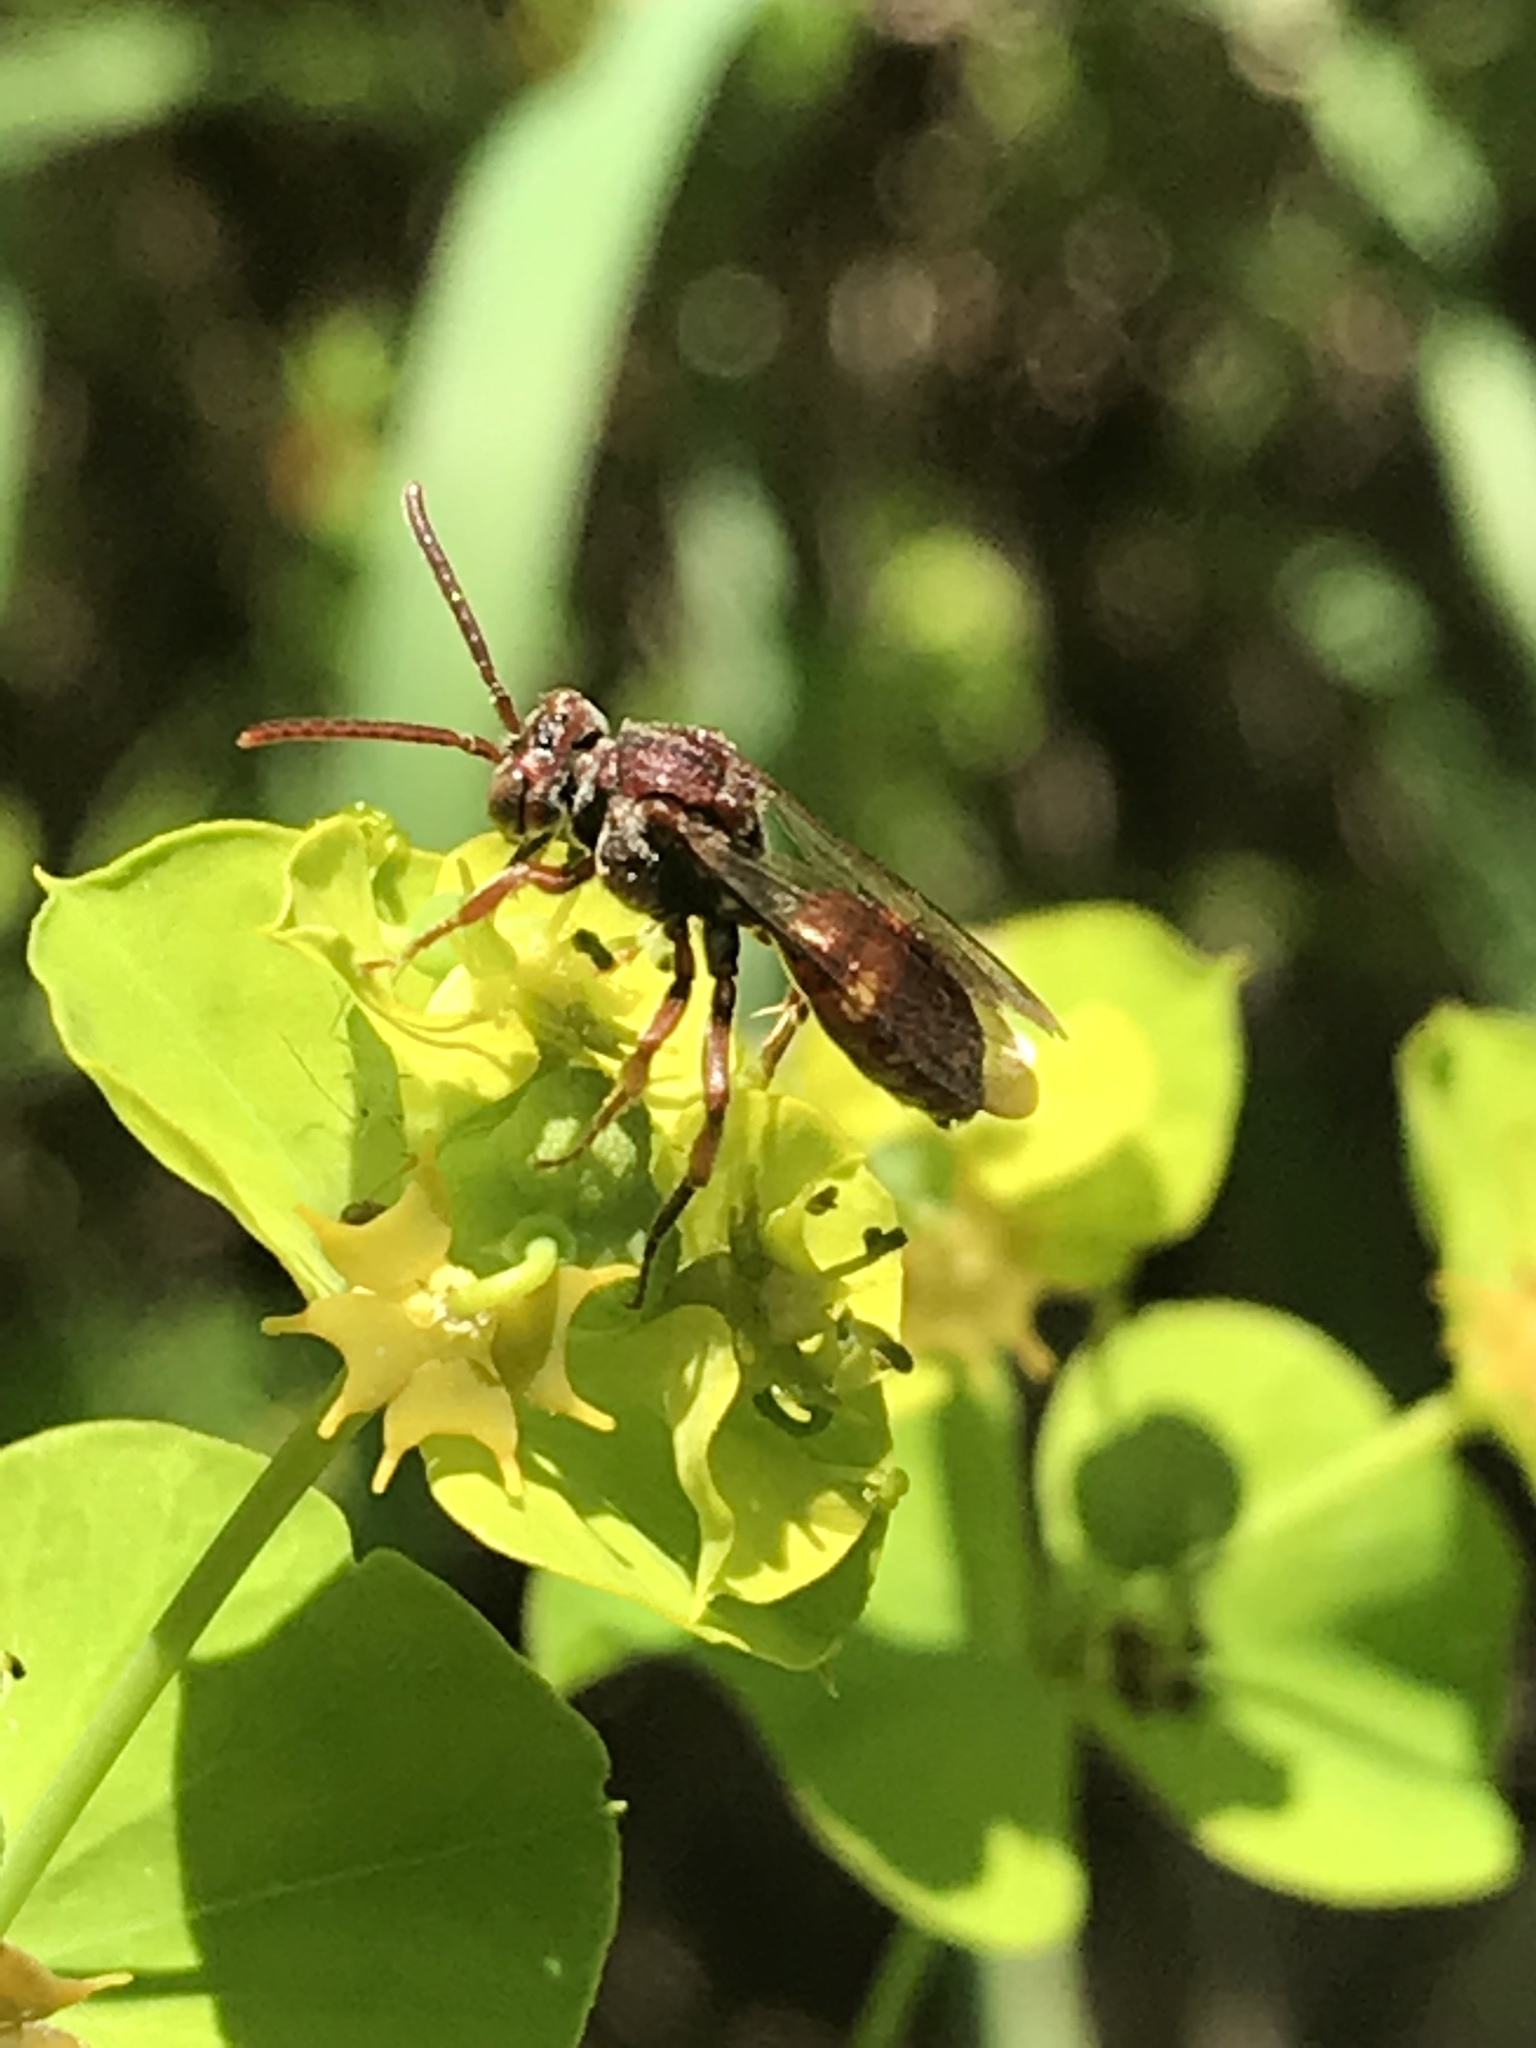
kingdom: Animalia
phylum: Arthropoda
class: Insecta
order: Hymenoptera
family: Apidae
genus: Nomada
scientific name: Nomada
